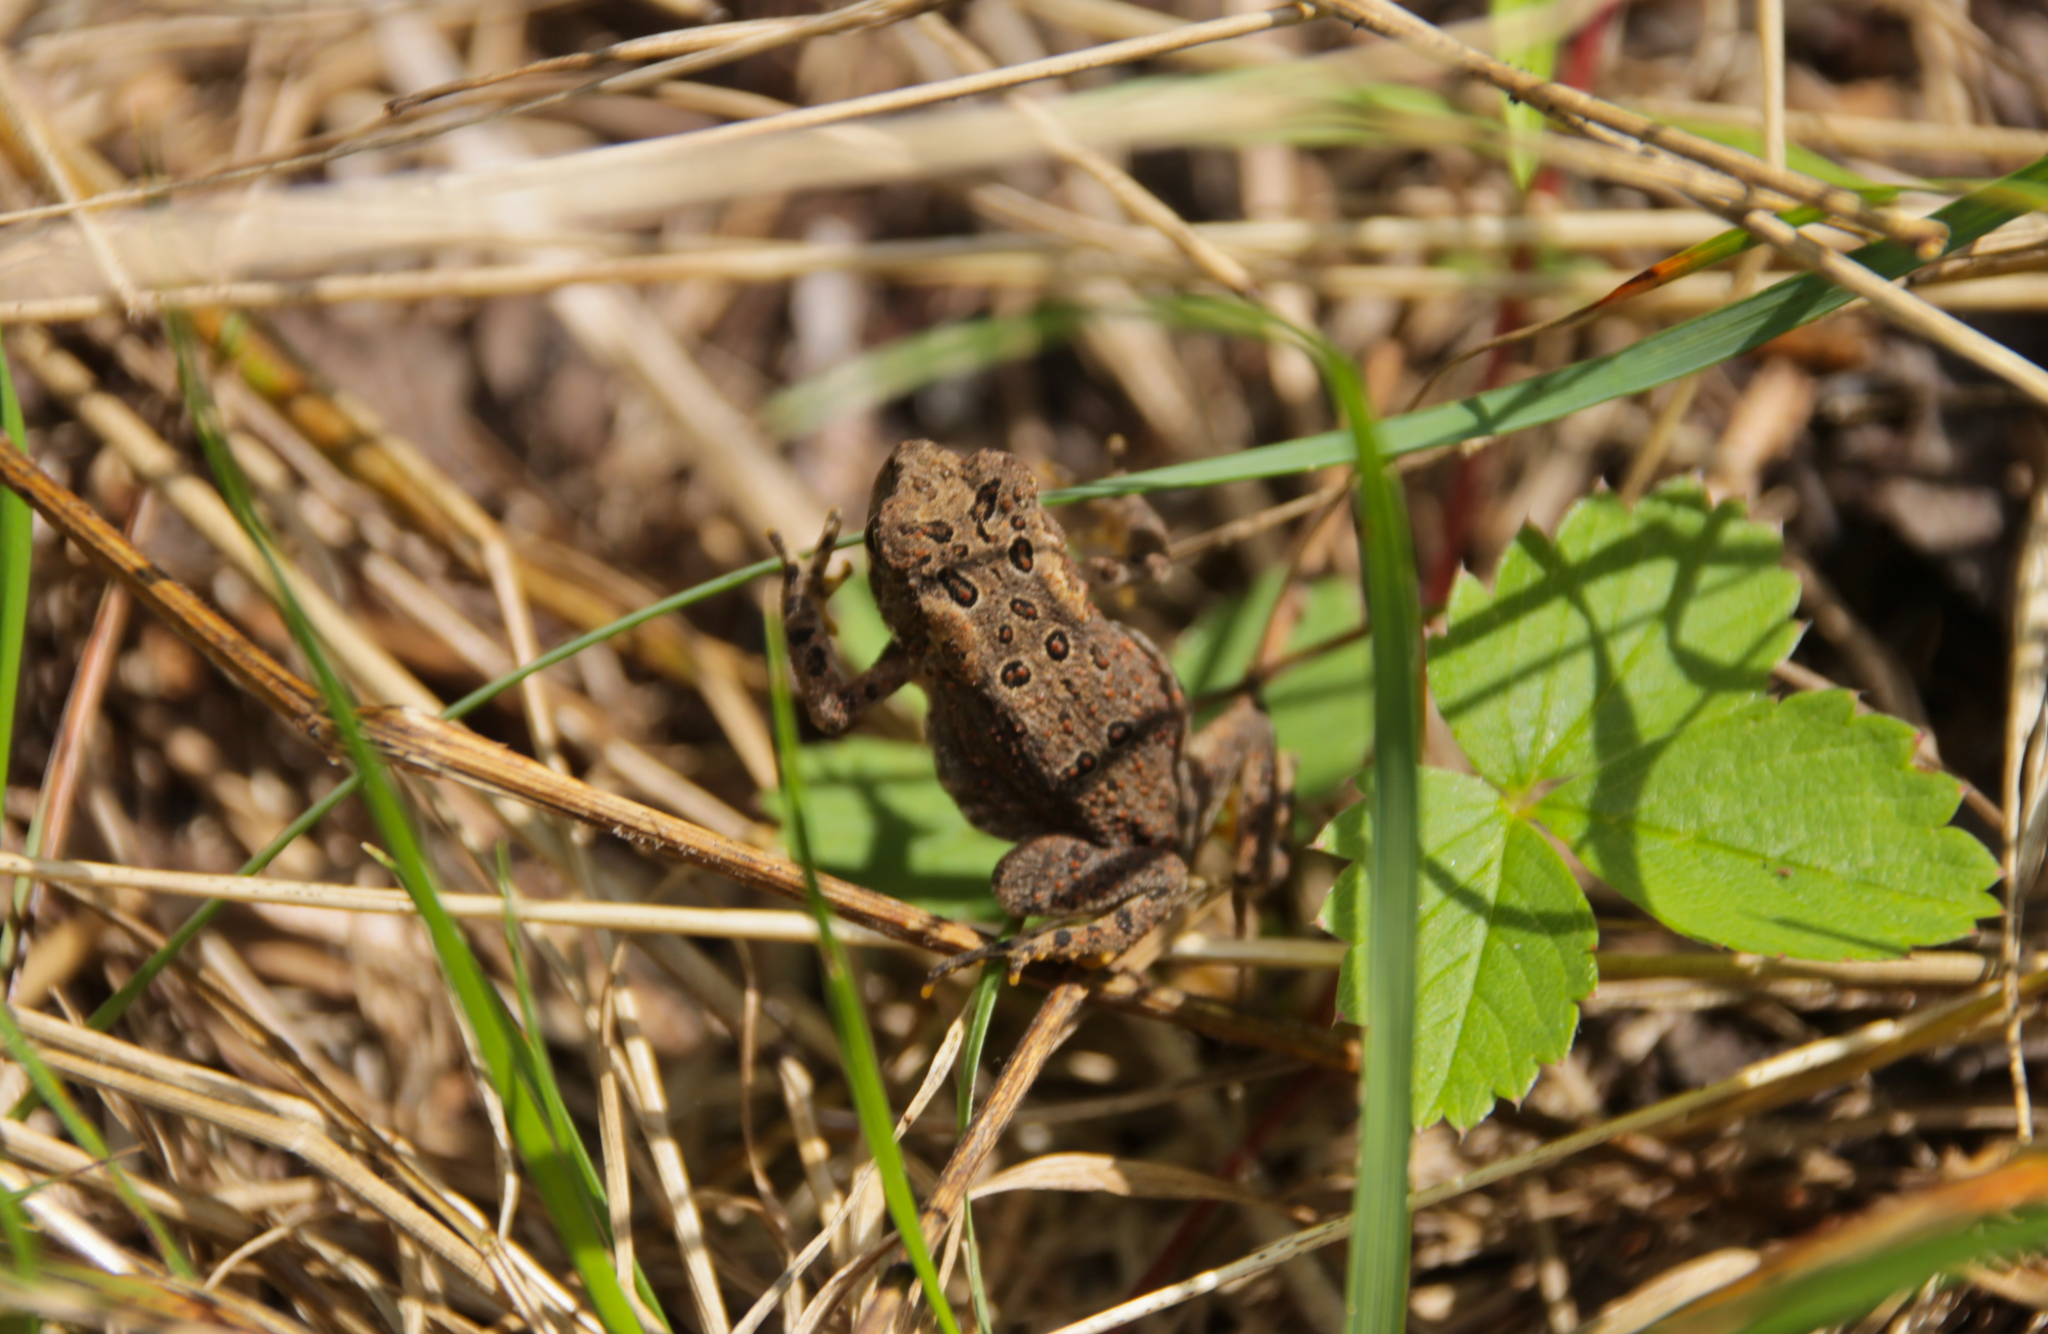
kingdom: Animalia
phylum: Chordata
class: Amphibia
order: Anura
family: Bufonidae
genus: Anaxyrus
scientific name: Anaxyrus americanus
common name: American toad
